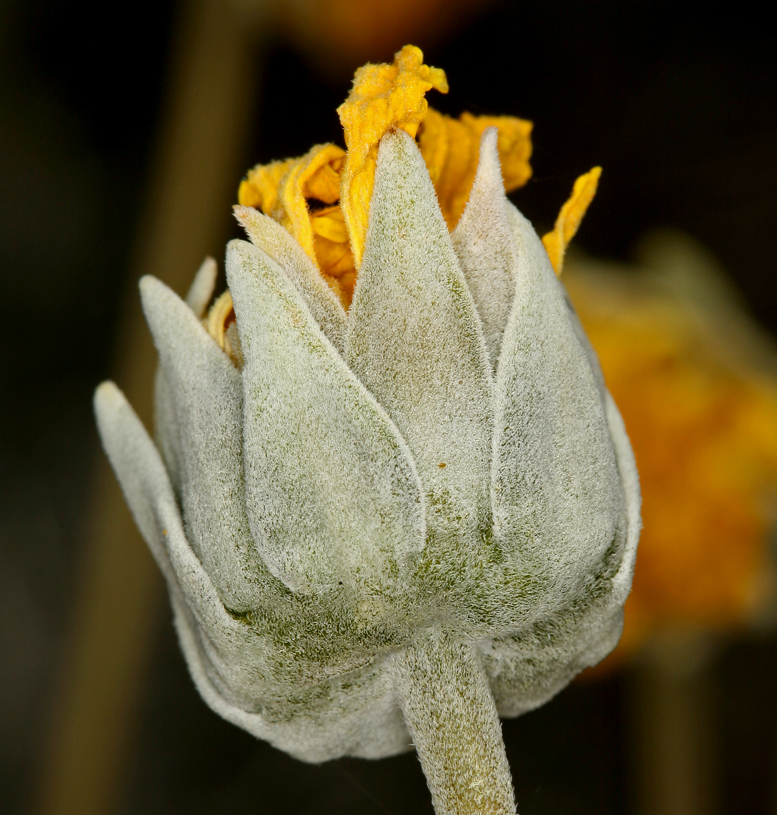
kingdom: Plantae
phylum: Tracheophyta
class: Magnoliopsida
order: Asterales
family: Asteraceae
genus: Enceliopsis
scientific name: Enceliopsis nudicaulis
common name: Naked-stem daisy
